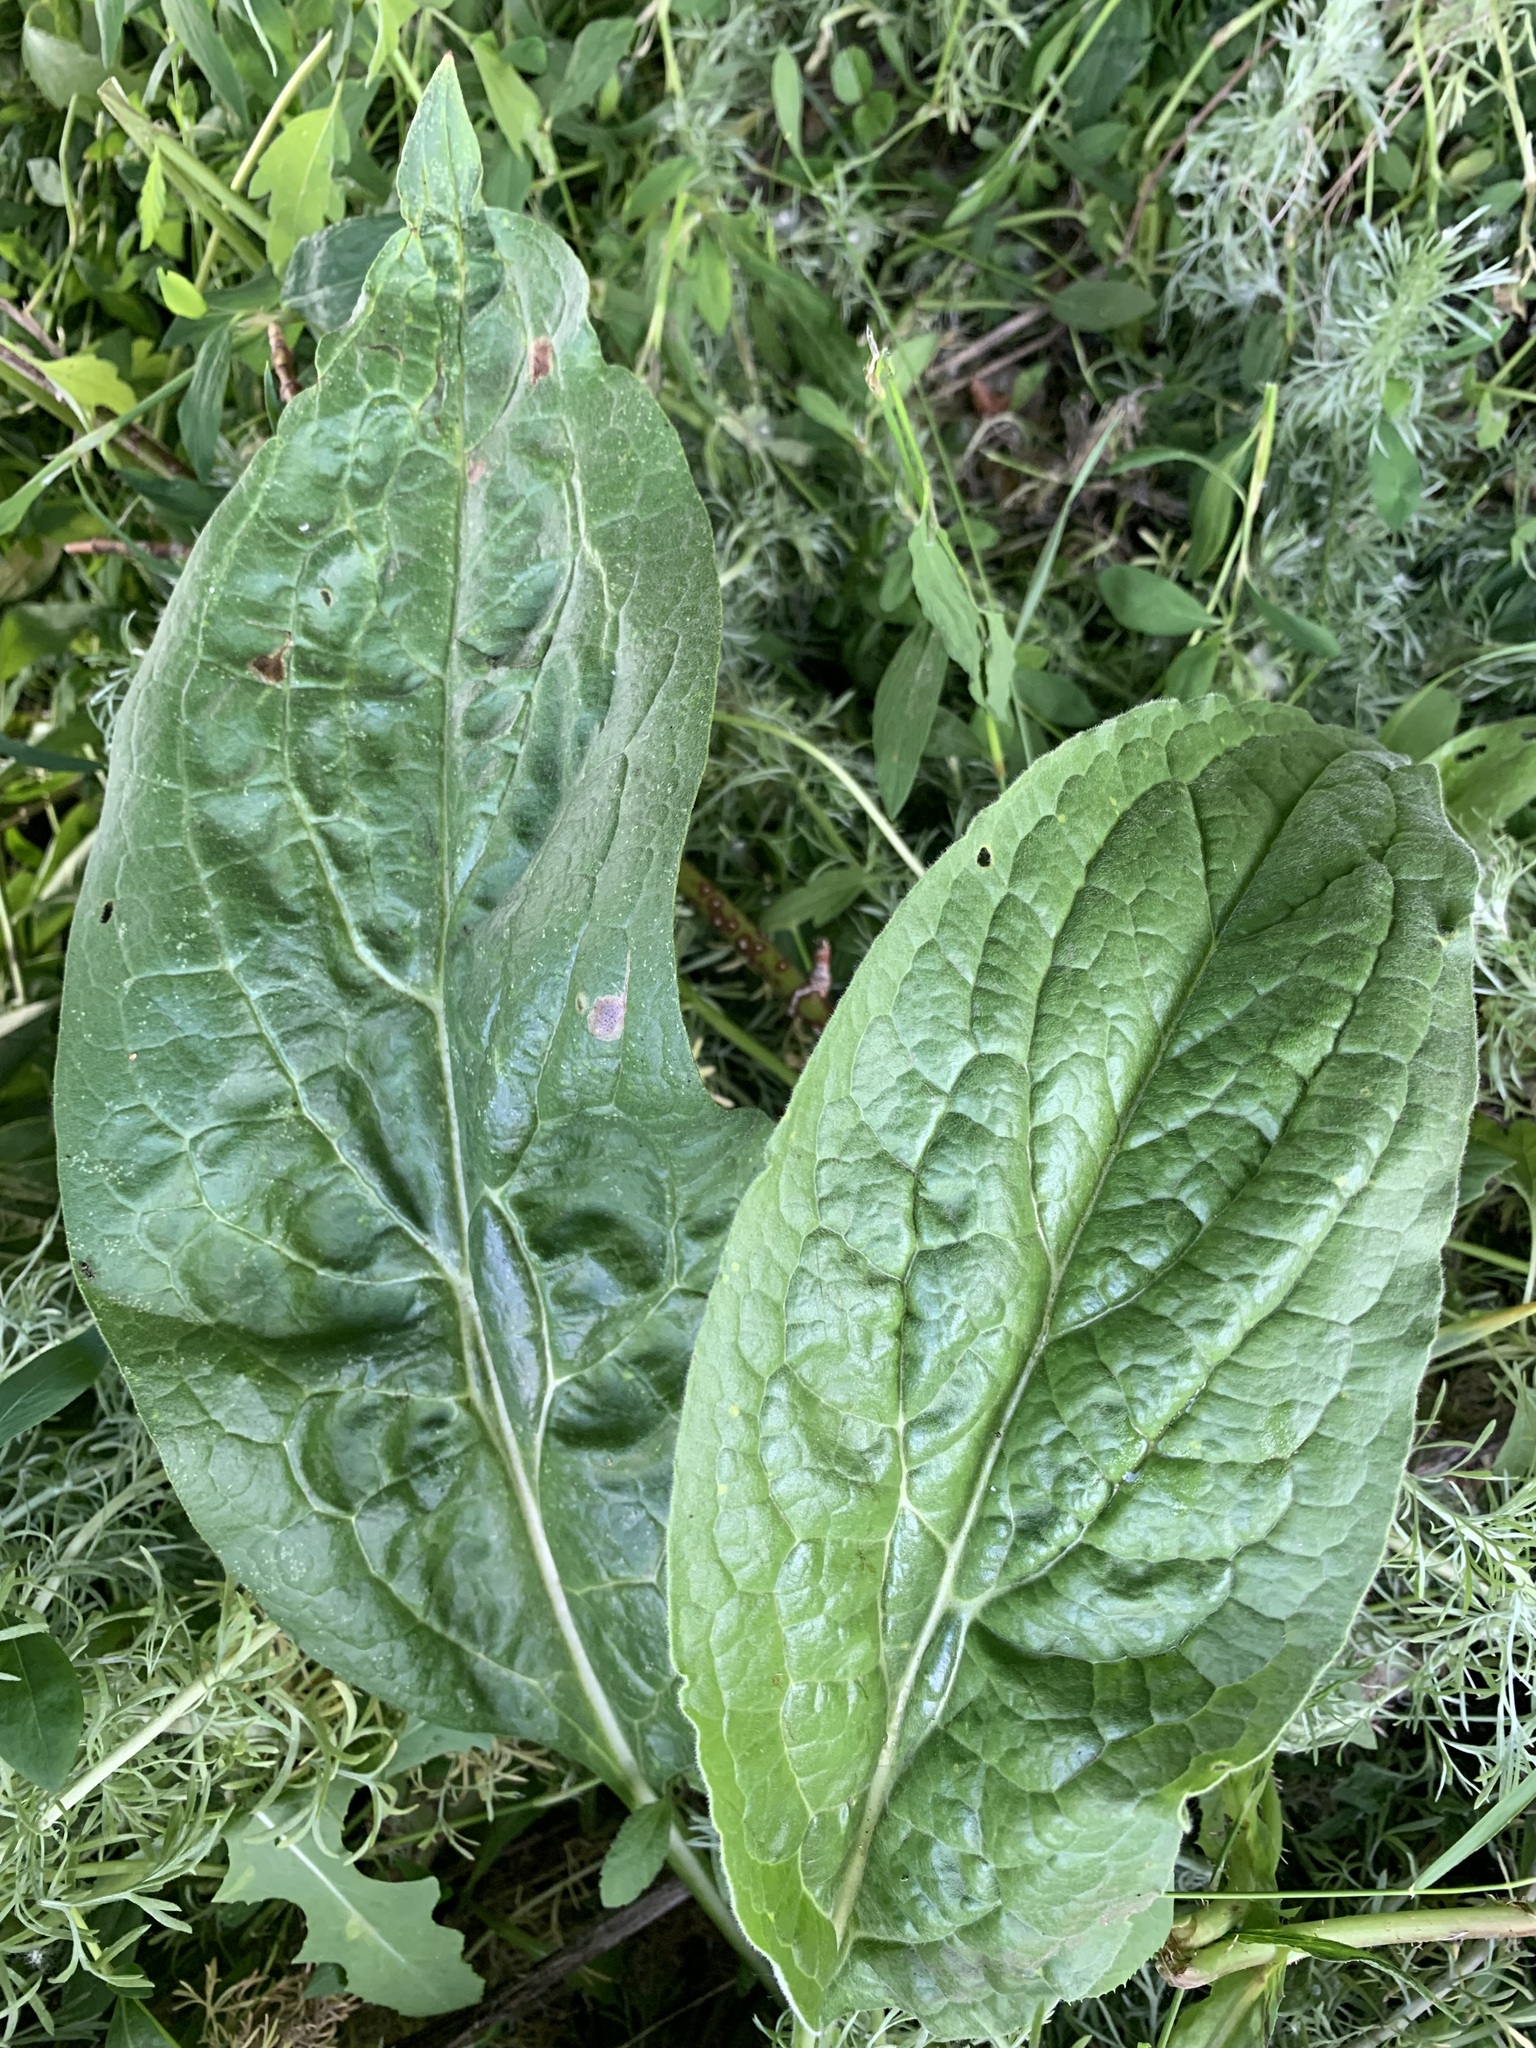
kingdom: Plantae
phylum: Tracheophyta
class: Magnoliopsida
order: Boraginales
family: Boraginaceae
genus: Cynoglossum
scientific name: Cynoglossum officinale
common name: Hound's-tongue
